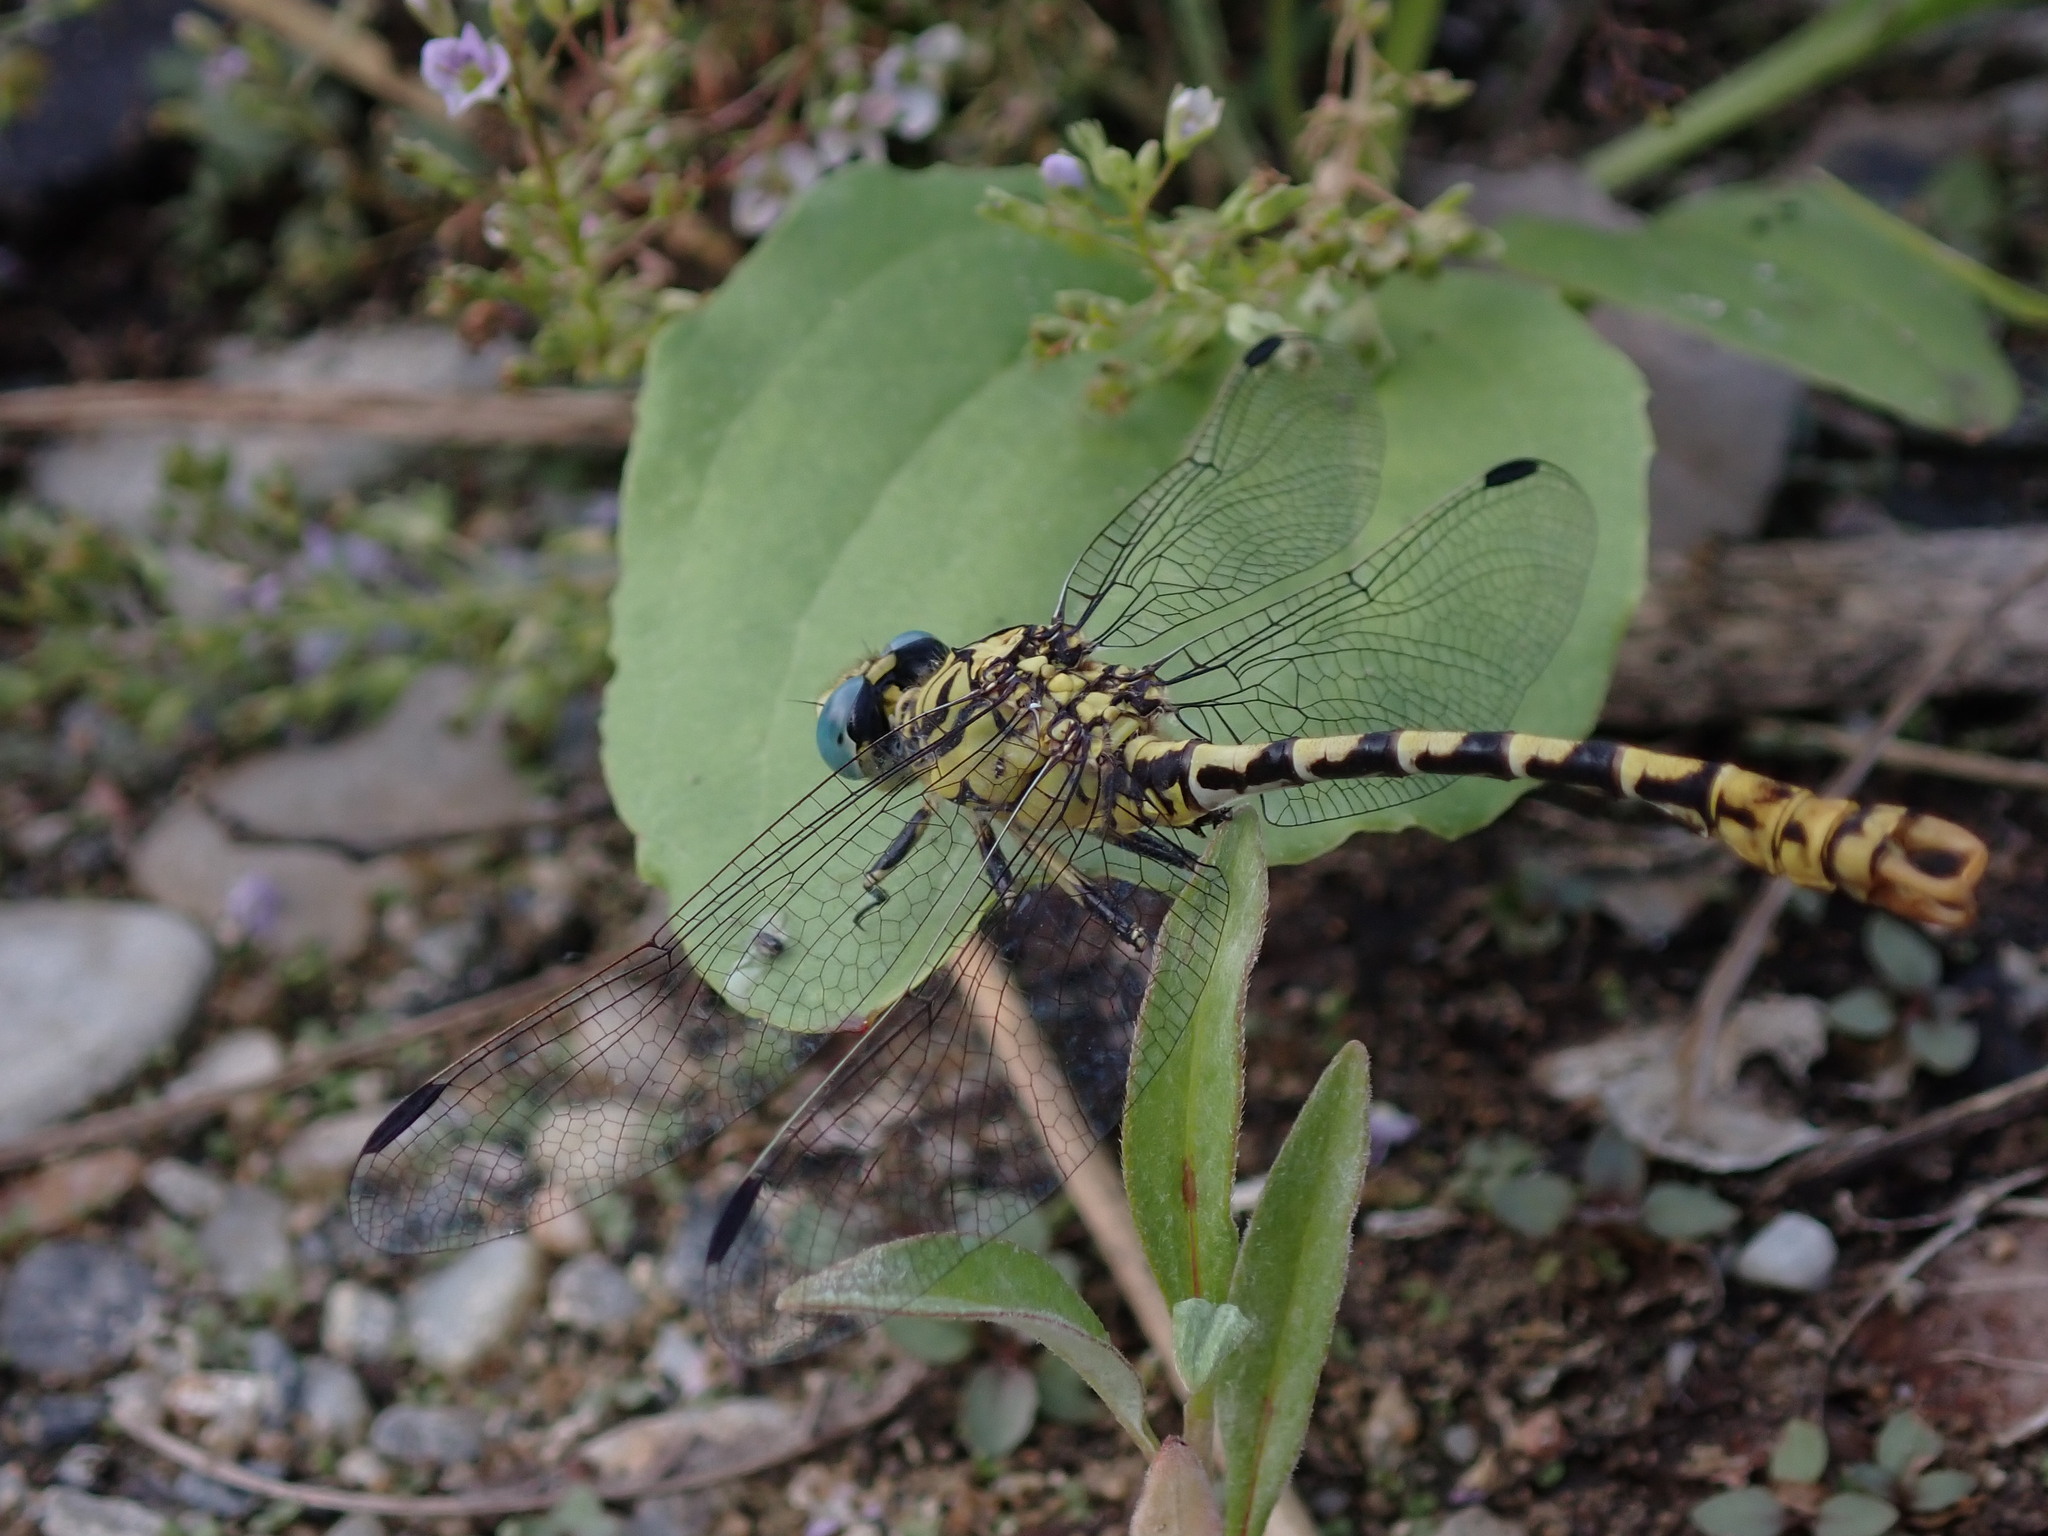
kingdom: Animalia
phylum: Arthropoda
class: Insecta
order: Odonata
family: Gomphidae
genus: Onychogomphus
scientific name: Onychogomphus forcipatus
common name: Small pincertail
